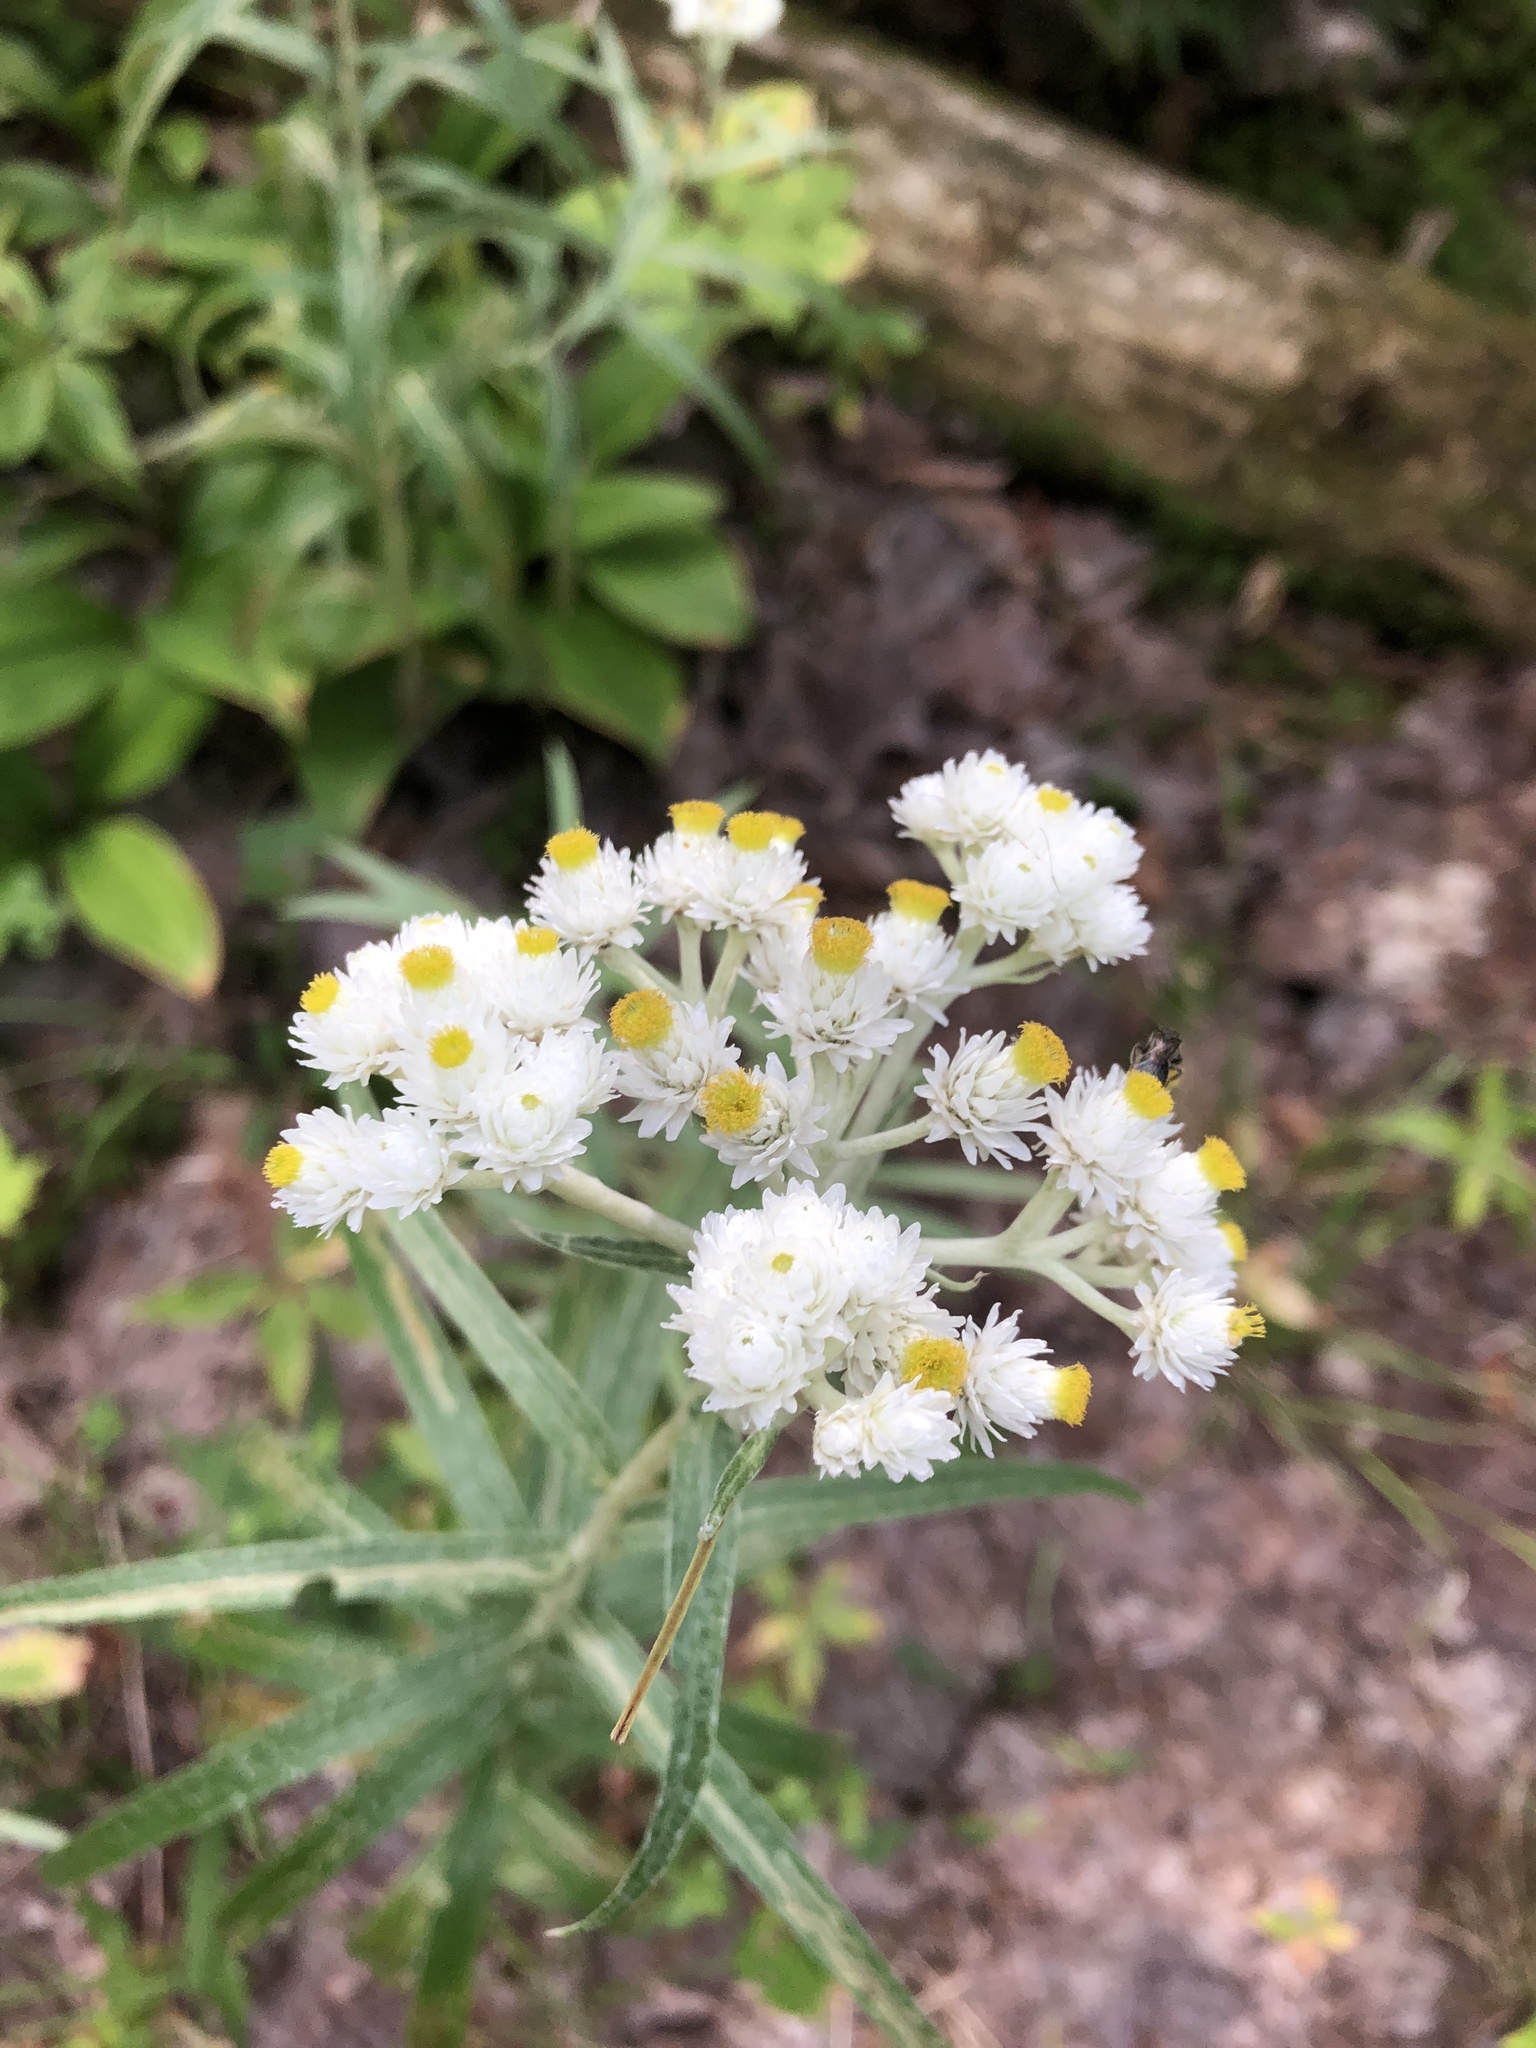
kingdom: Plantae
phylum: Tracheophyta
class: Magnoliopsida
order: Asterales
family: Asteraceae
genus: Anaphalis
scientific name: Anaphalis margaritacea
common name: Pearly everlasting
